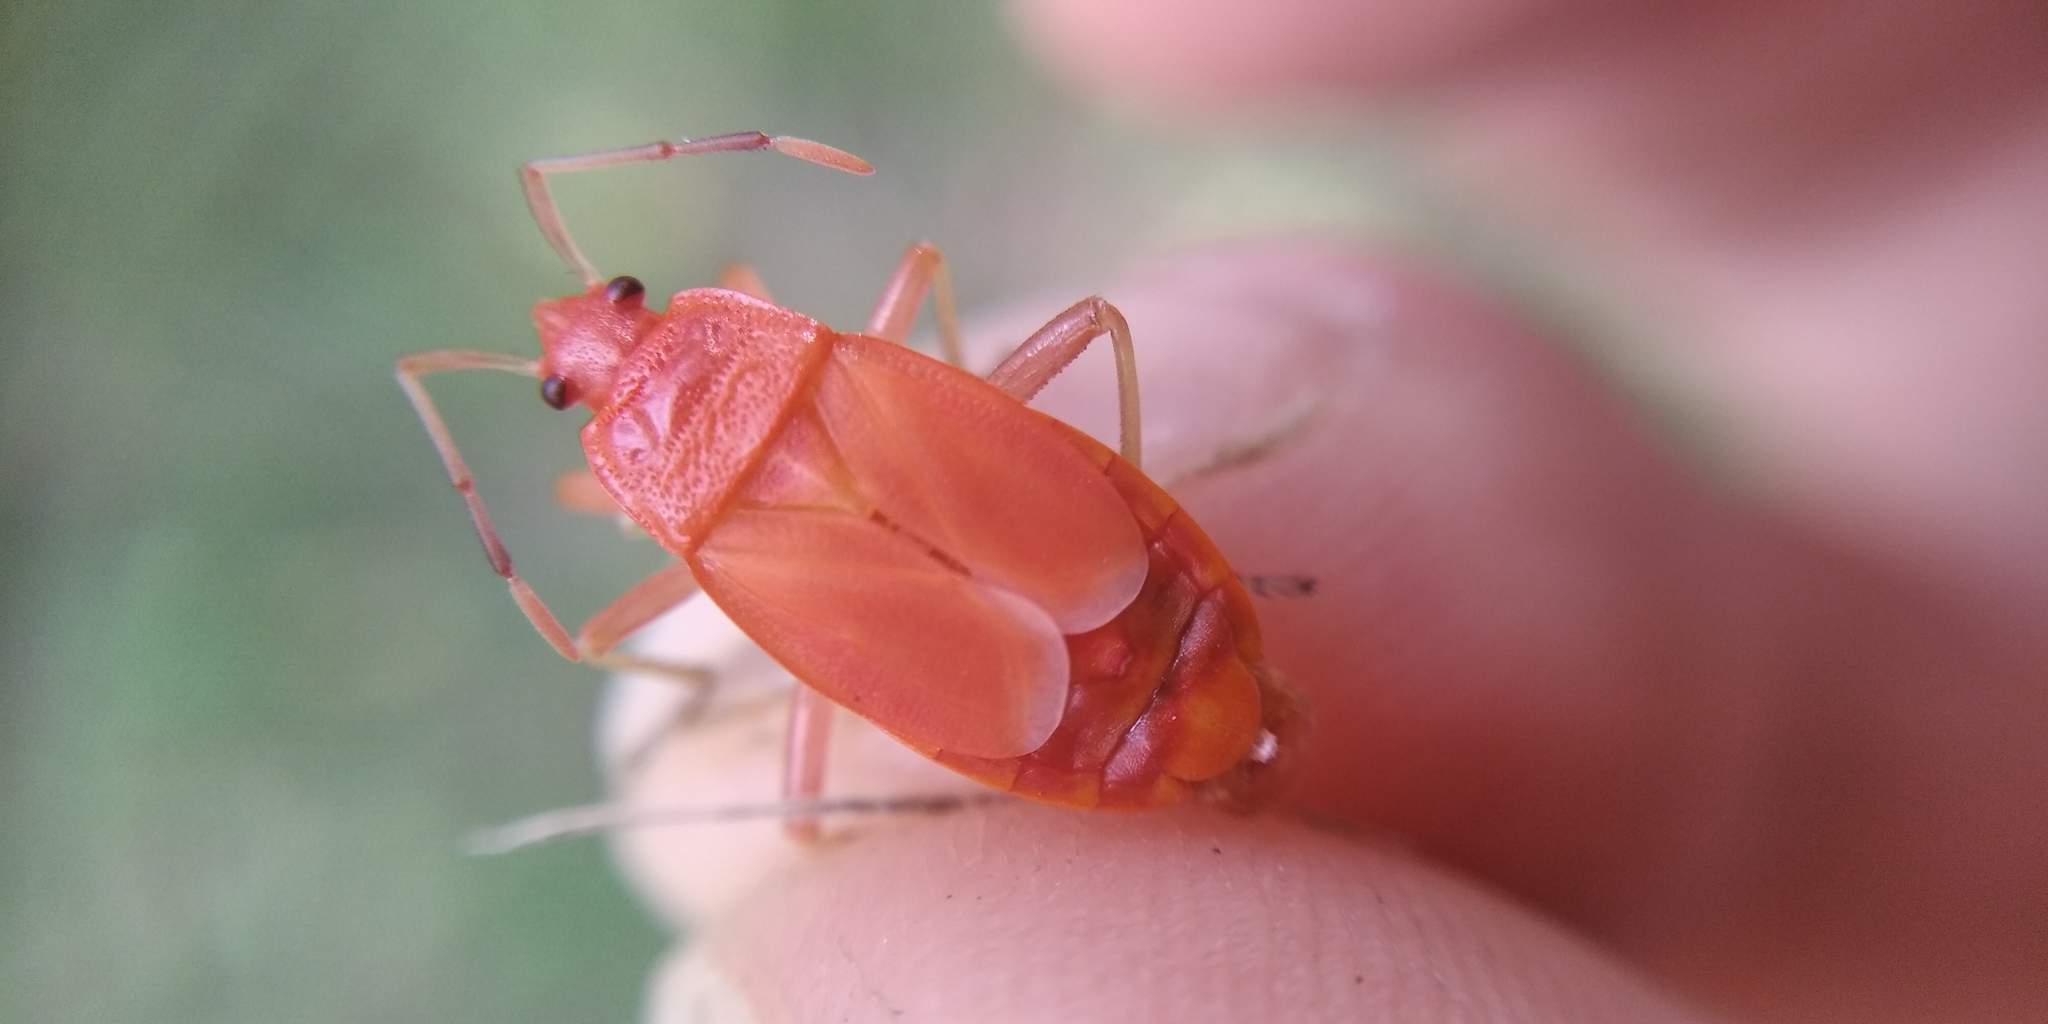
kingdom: Animalia
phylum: Arthropoda
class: Insecta
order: Hemiptera
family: Pyrrhocoridae
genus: Pyrrhocoris
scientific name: Pyrrhocoris apterus
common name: Firebug
